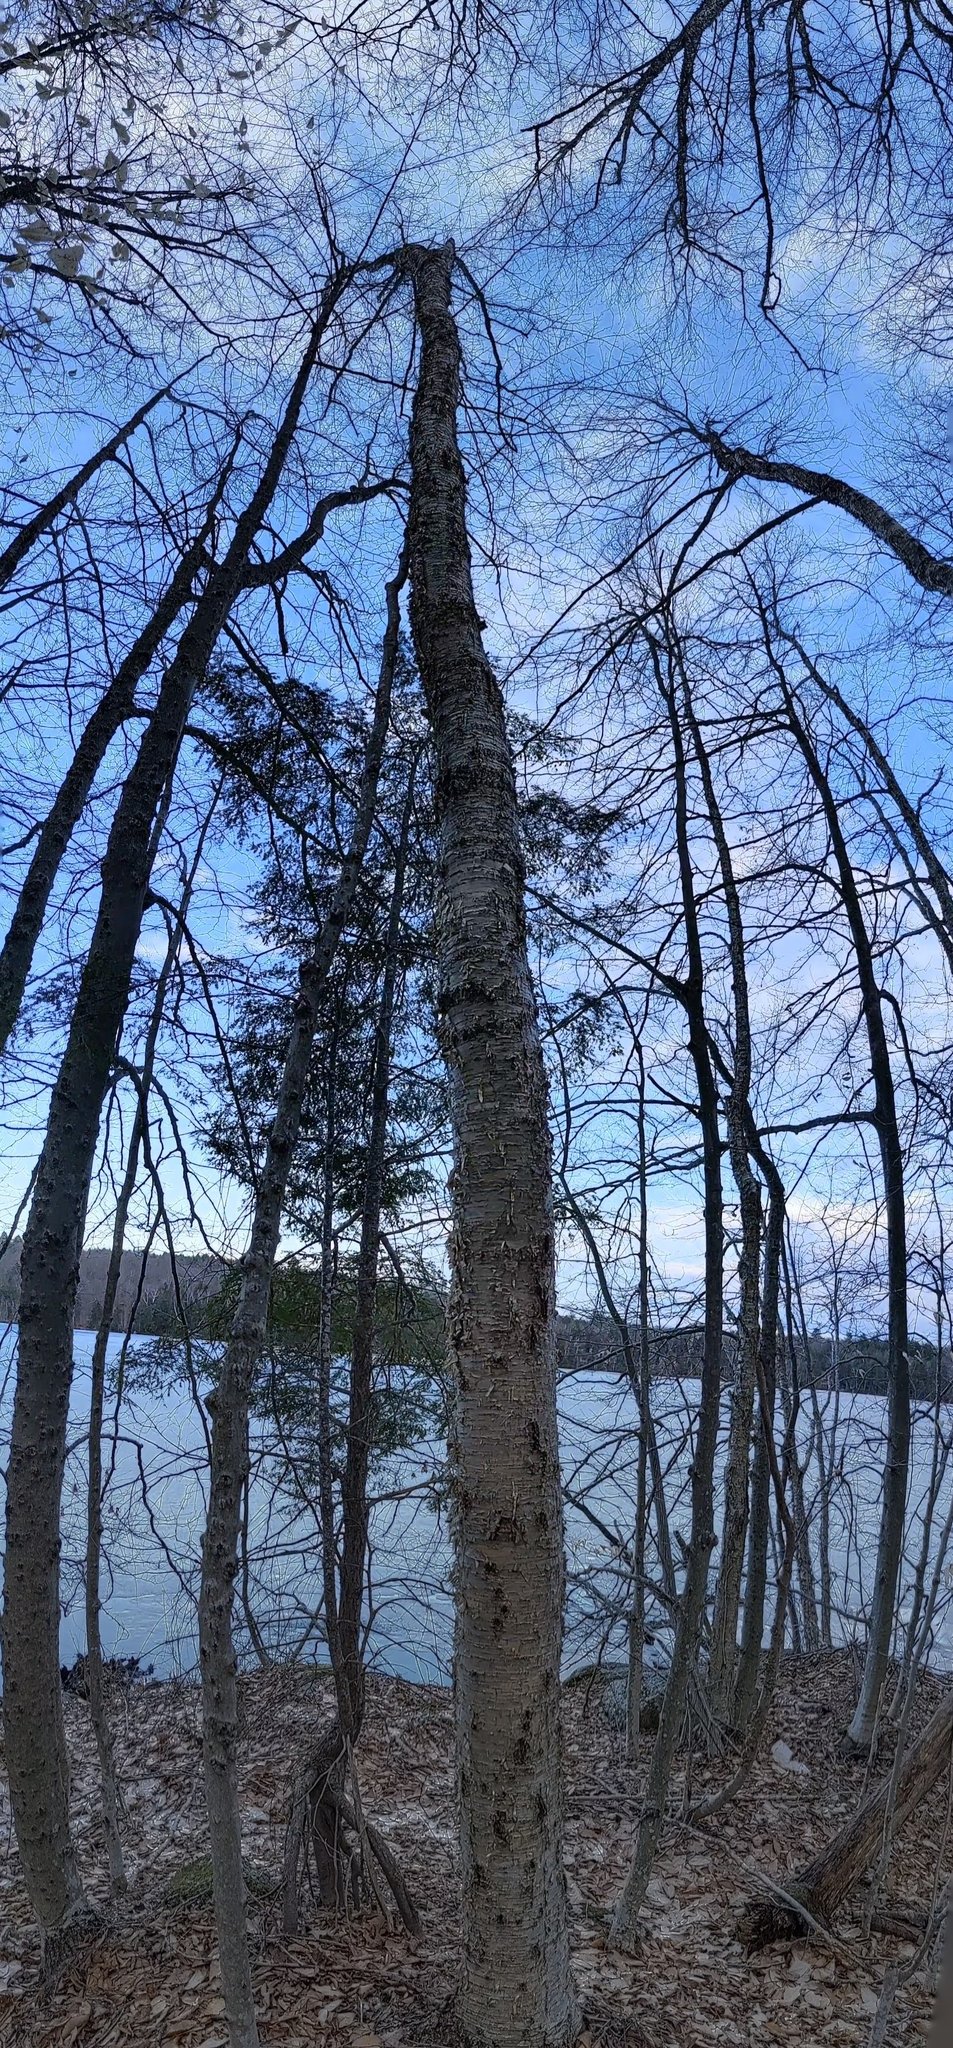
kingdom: Plantae
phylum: Tracheophyta
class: Magnoliopsida
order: Fagales
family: Betulaceae
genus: Betula
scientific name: Betula alleghaniensis
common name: Yellow birch
